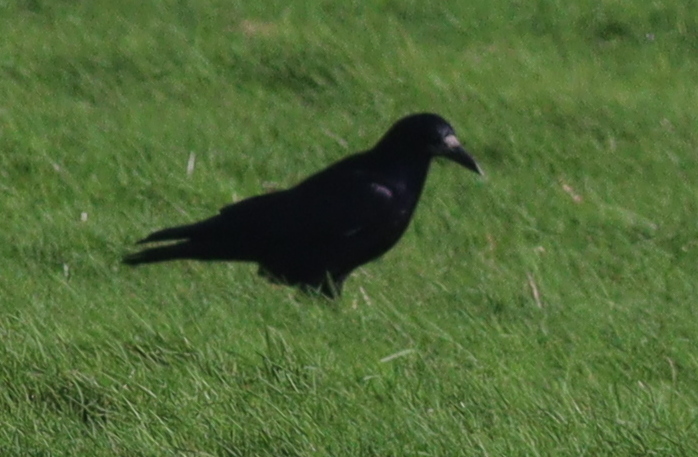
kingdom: Animalia
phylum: Chordata
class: Aves
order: Passeriformes
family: Corvidae
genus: Corvus
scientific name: Corvus frugilegus
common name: Rook
